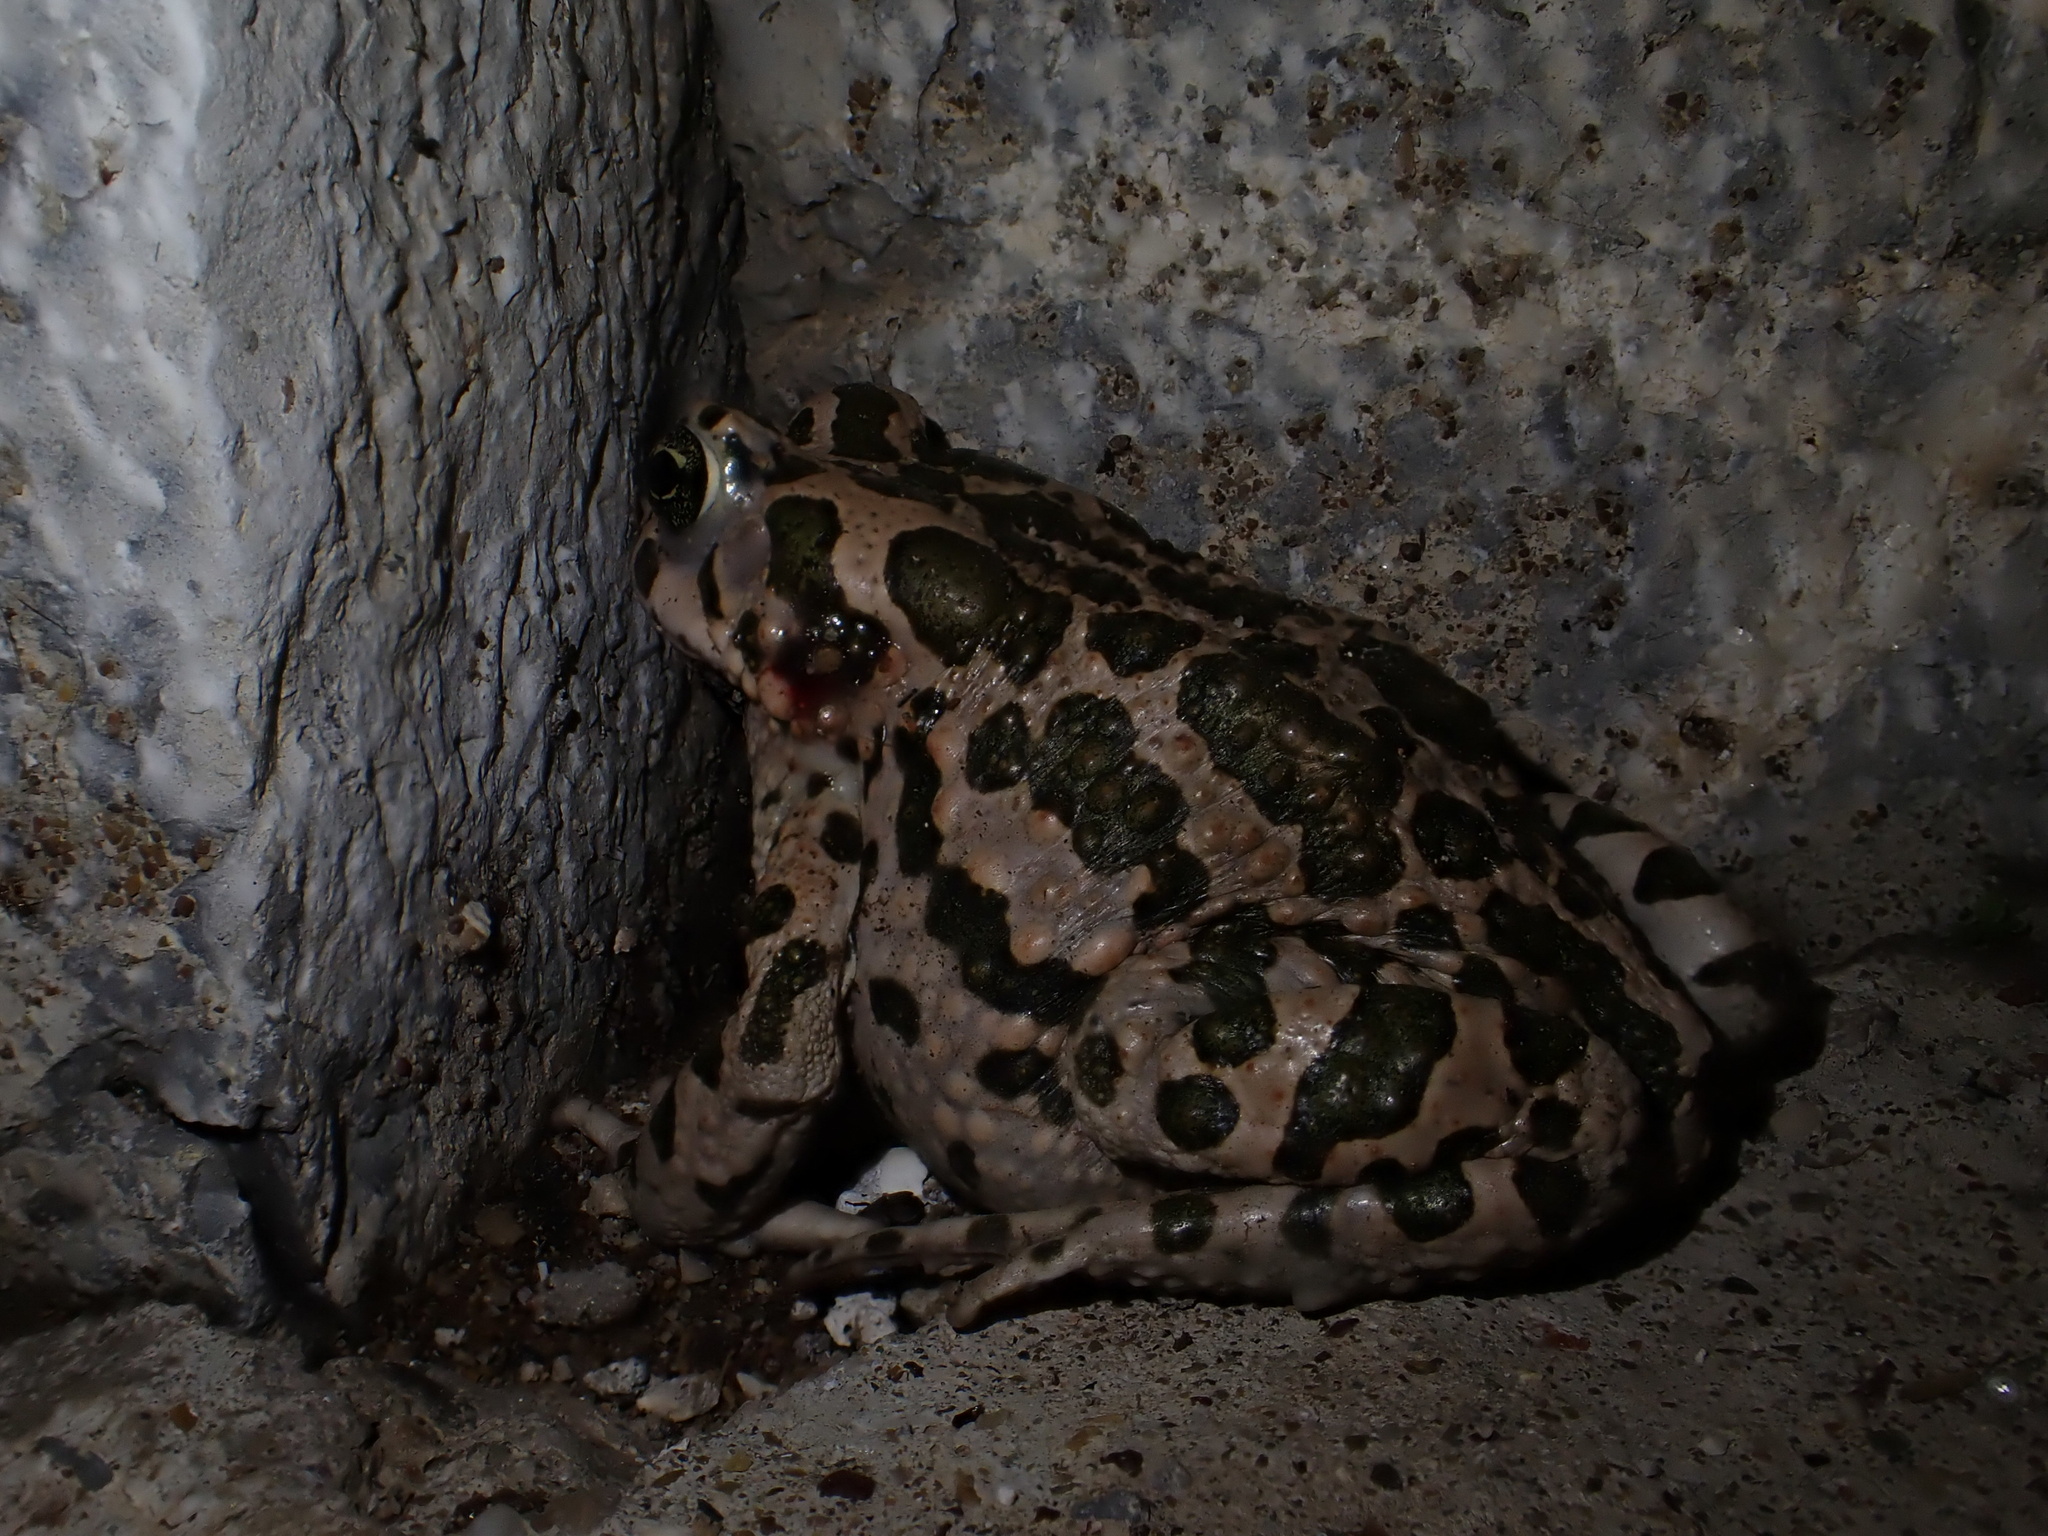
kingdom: Animalia
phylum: Chordata
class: Amphibia
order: Anura
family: Bufonidae
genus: Bufotes
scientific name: Bufotes viridis
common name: European green toad
